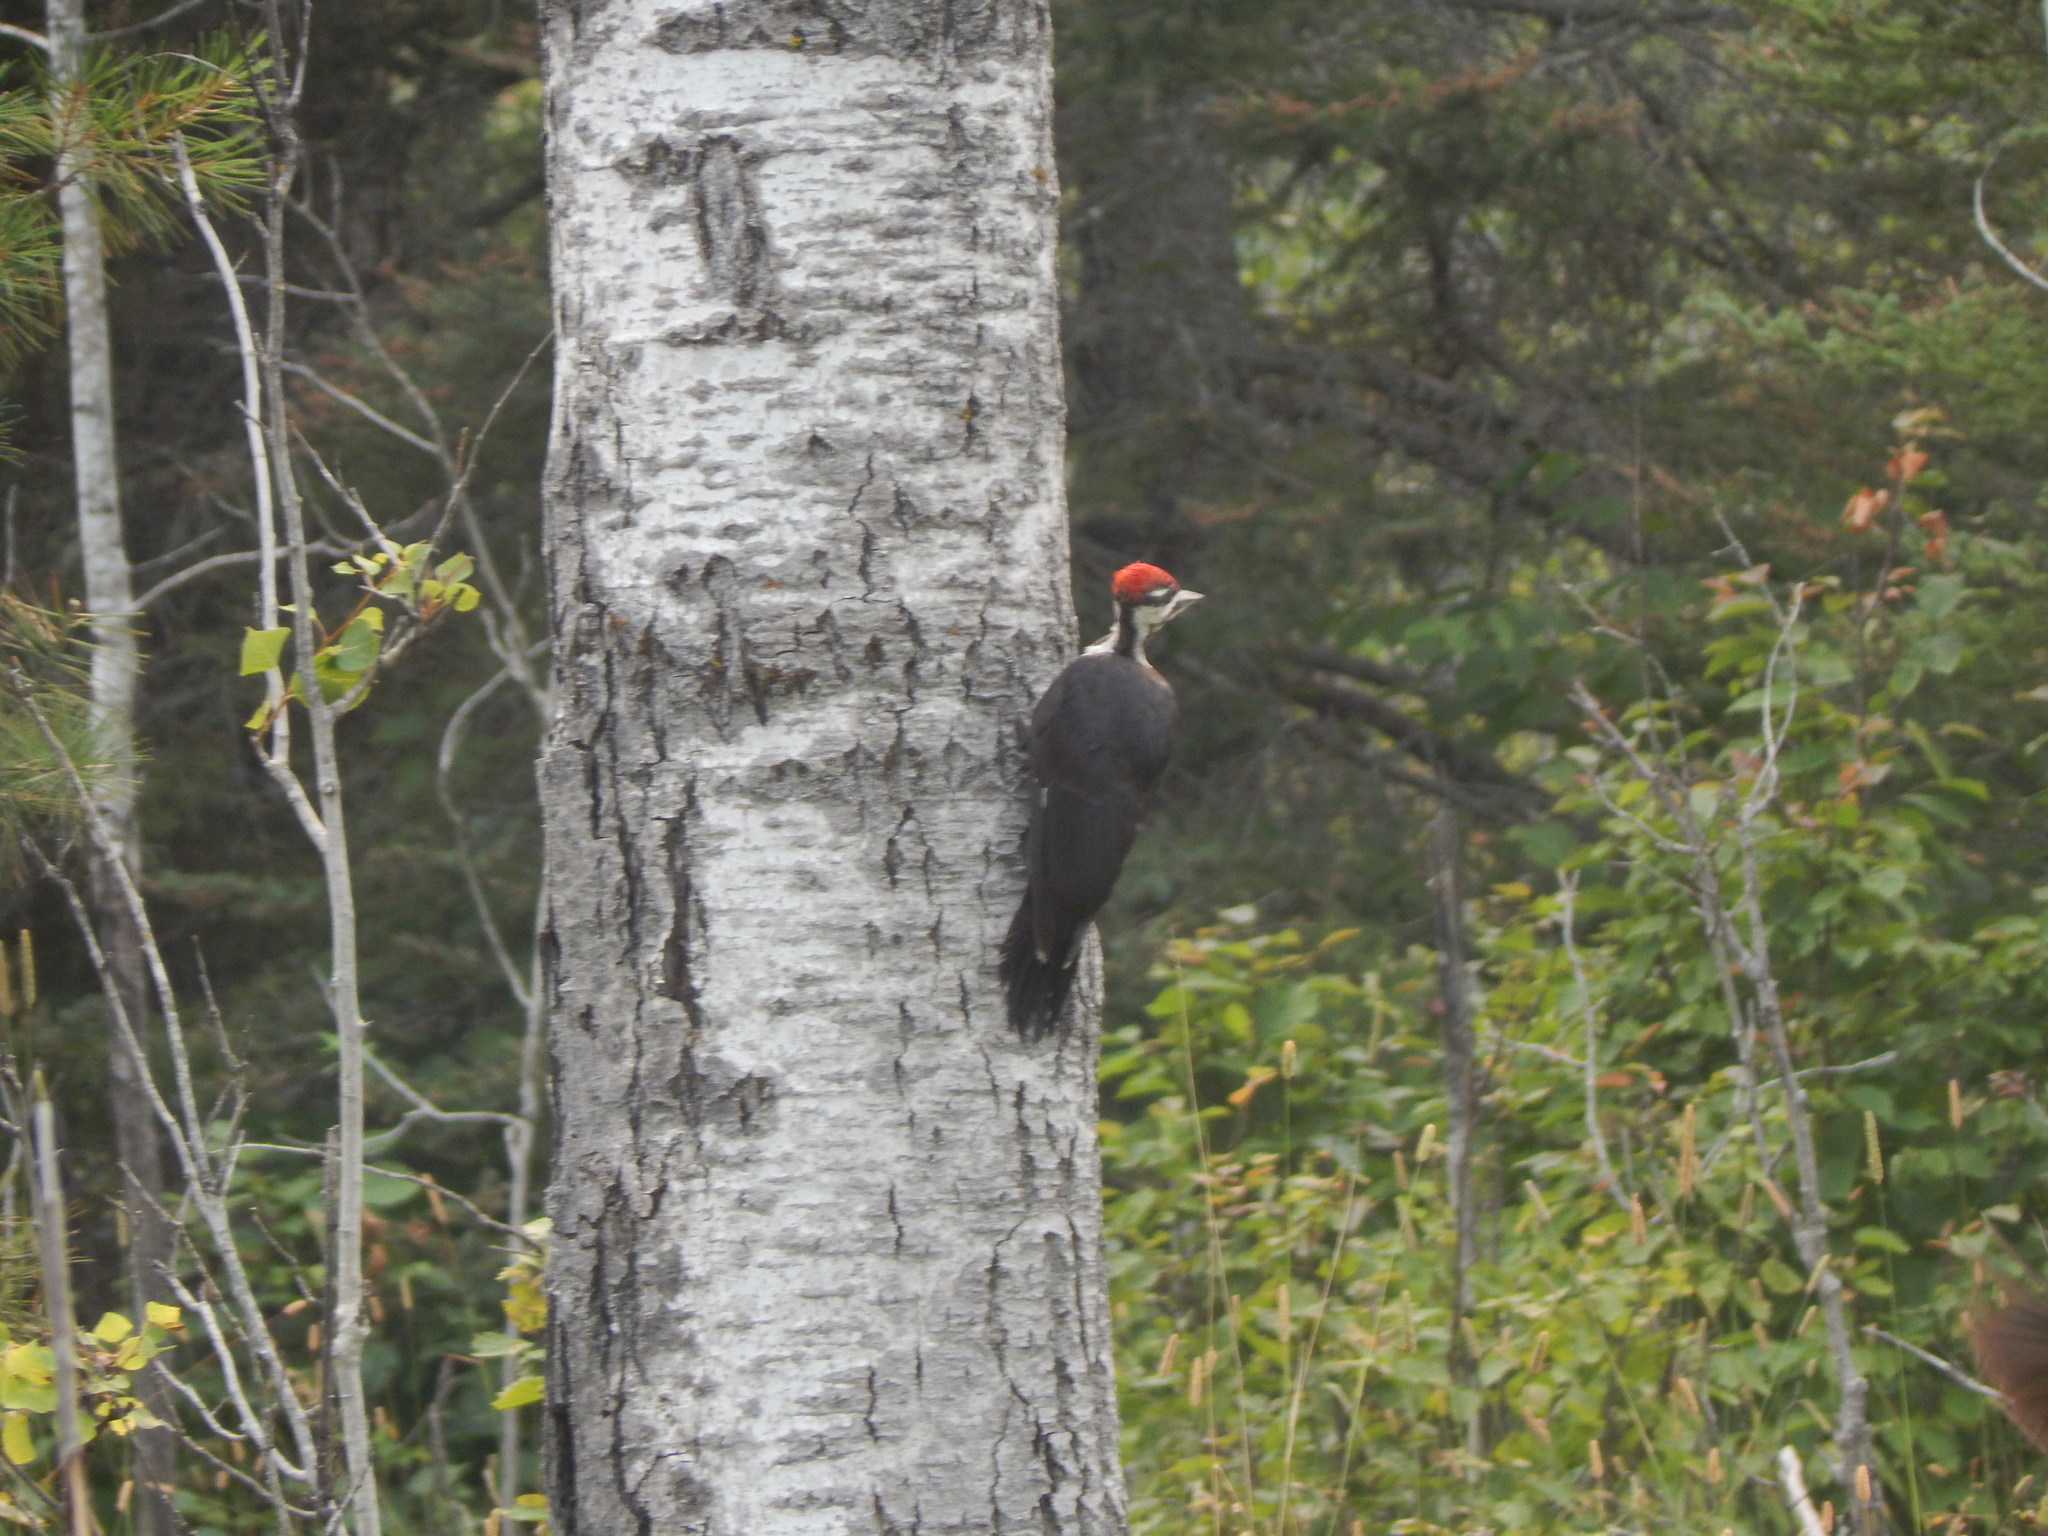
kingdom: Animalia
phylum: Chordata
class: Aves
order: Piciformes
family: Picidae
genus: Dryocopus
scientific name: Dryocopus pileatus
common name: Pileated woodpecker
